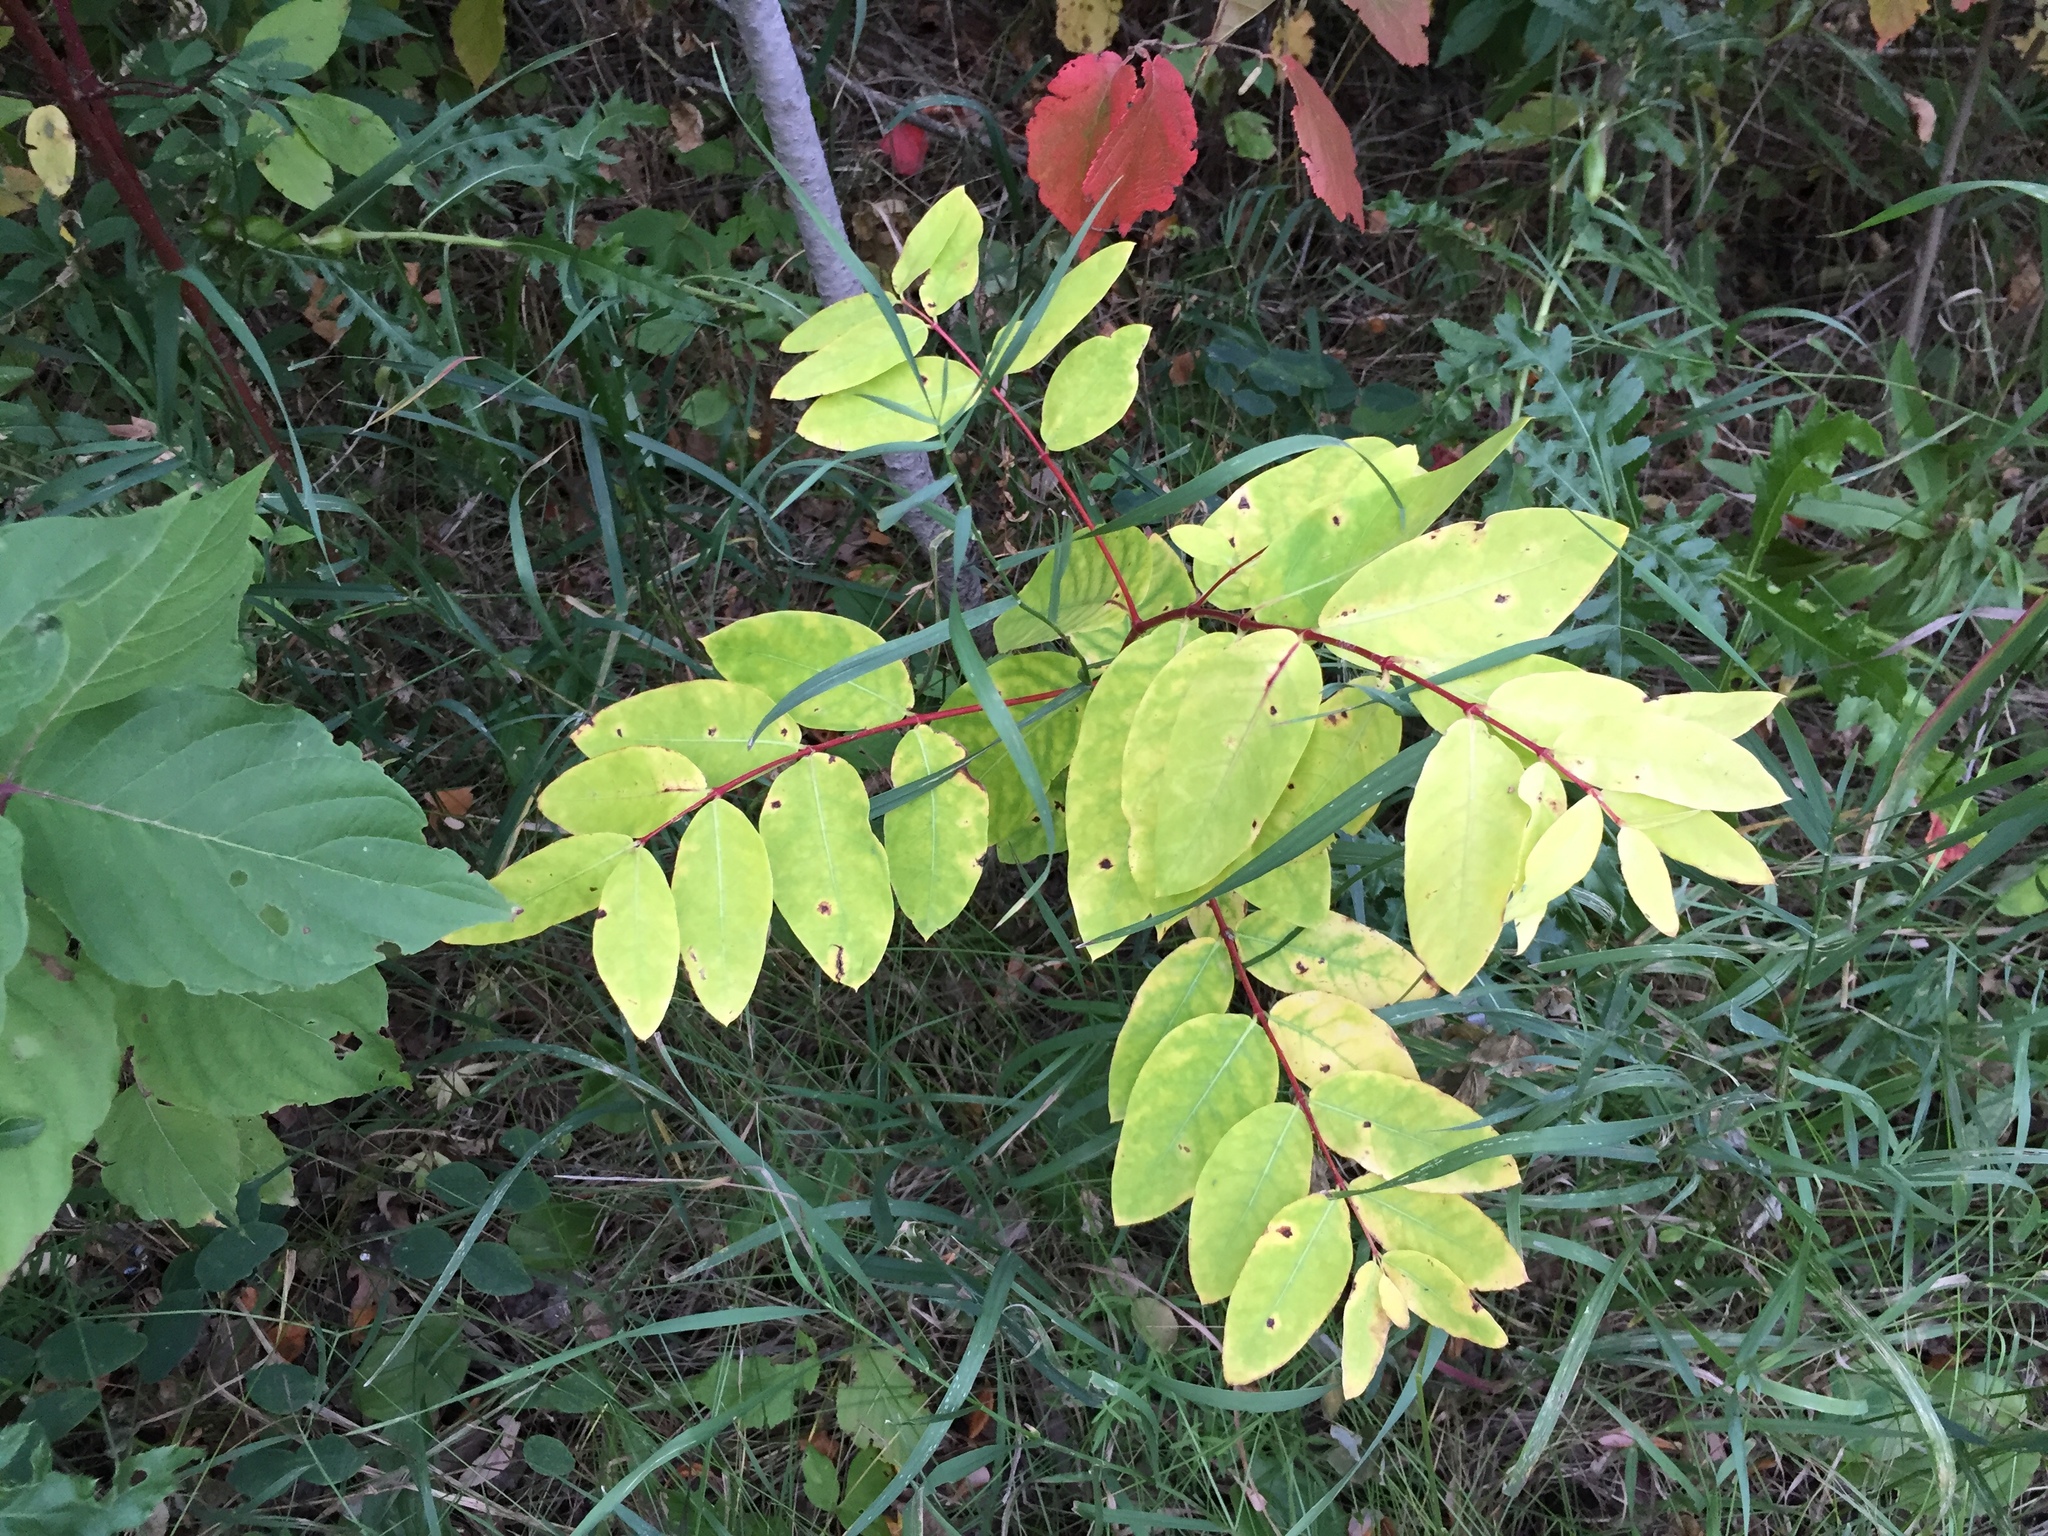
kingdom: Plantae
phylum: Tracheophyta
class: Magnoliopsida
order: Gentianales
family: Apocynaceae
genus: Apocynum
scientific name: Apocynum androsaemifolium
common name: Spreading dogbane
